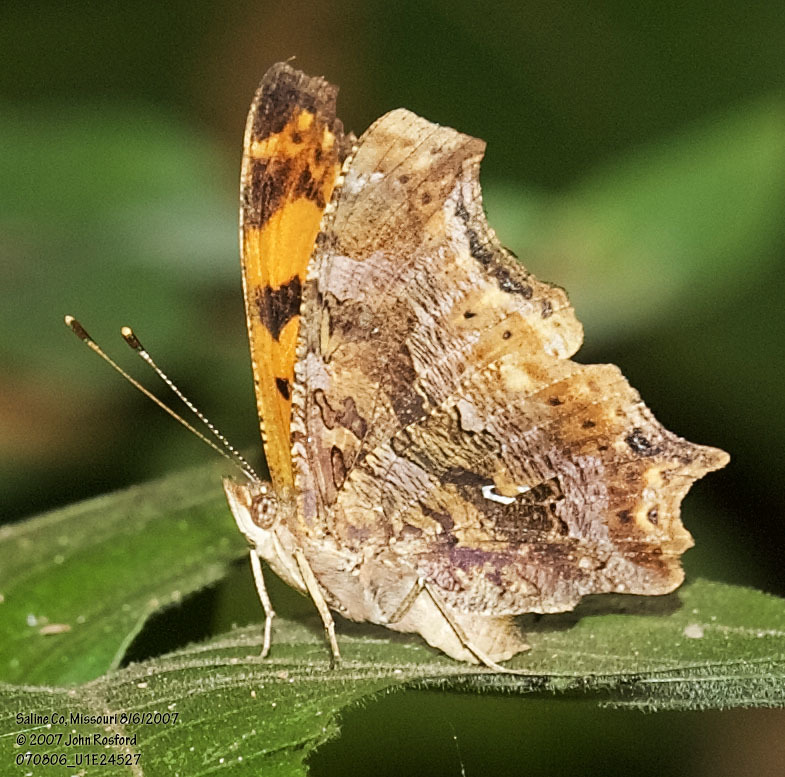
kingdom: Animalia
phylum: Arthropoda
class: Insecta
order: Lepidoptera
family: Nymphalidae
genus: Polygonia
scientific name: Polygonia comma
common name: Eastern comma
